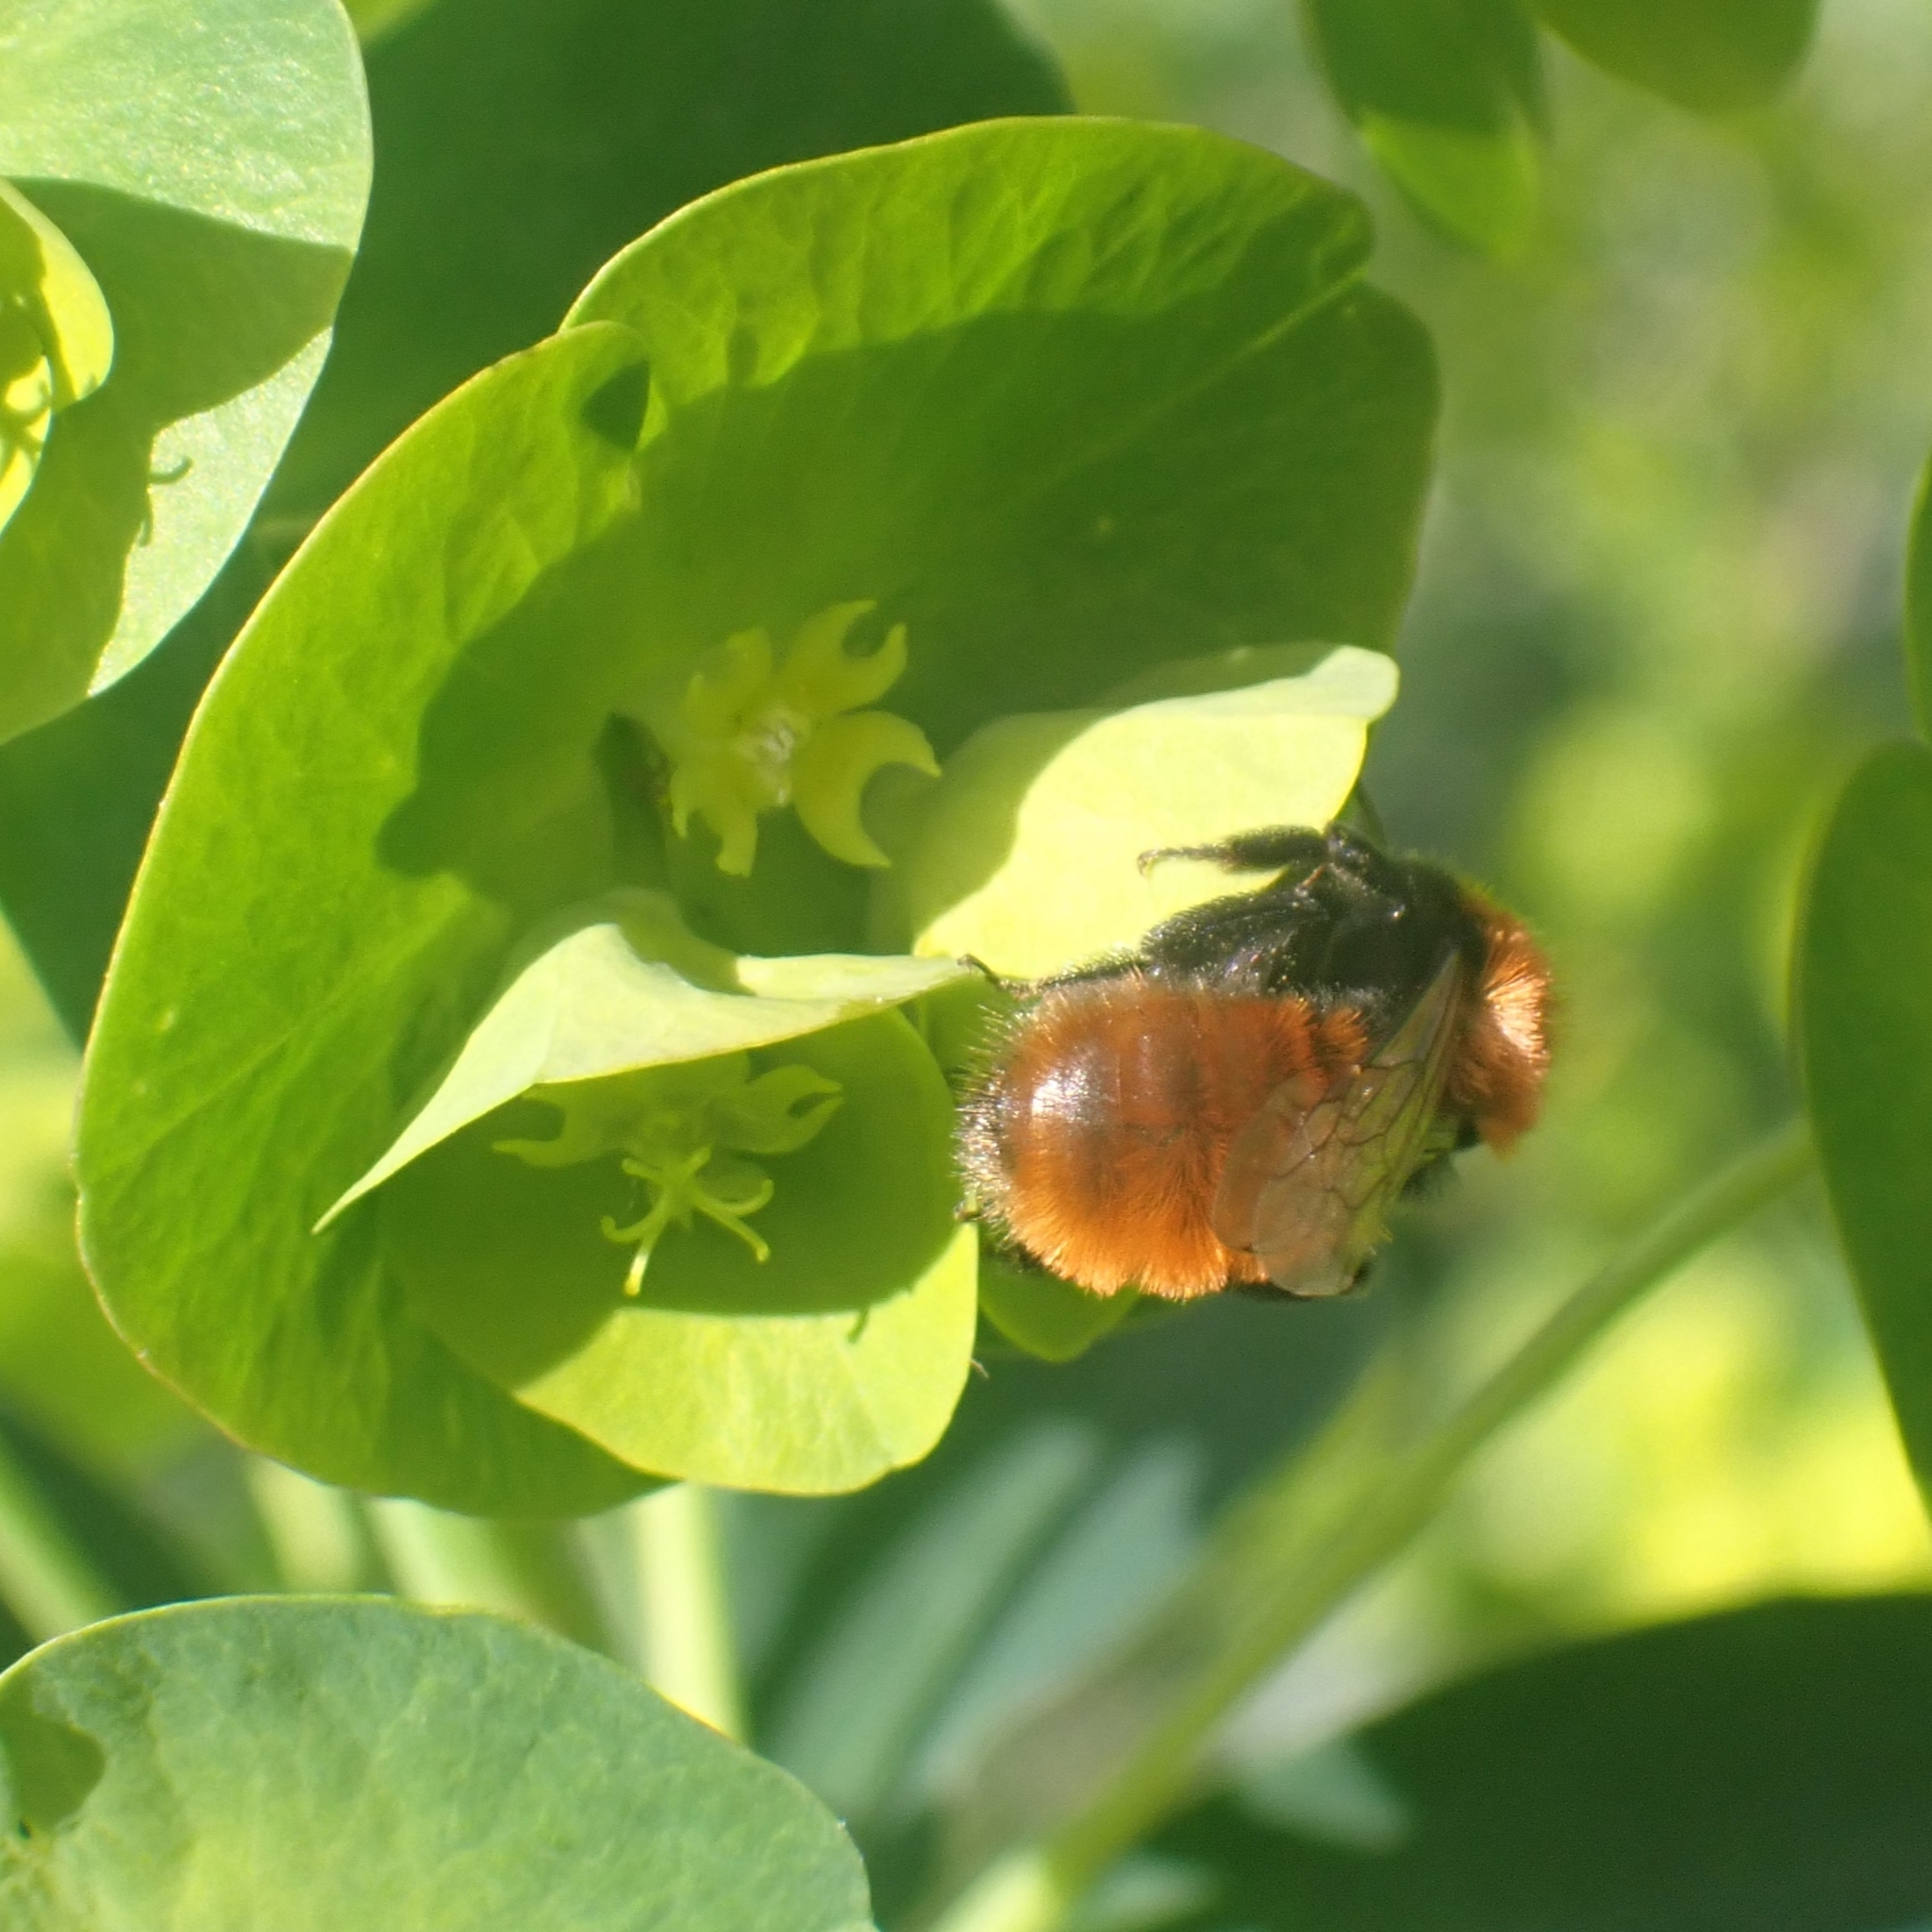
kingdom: Animalia
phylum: Arthropoda
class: Insecta
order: Hymenoptera
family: Andrenidae
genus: Andrena
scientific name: Andrena fulva
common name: Tawny mining bee
